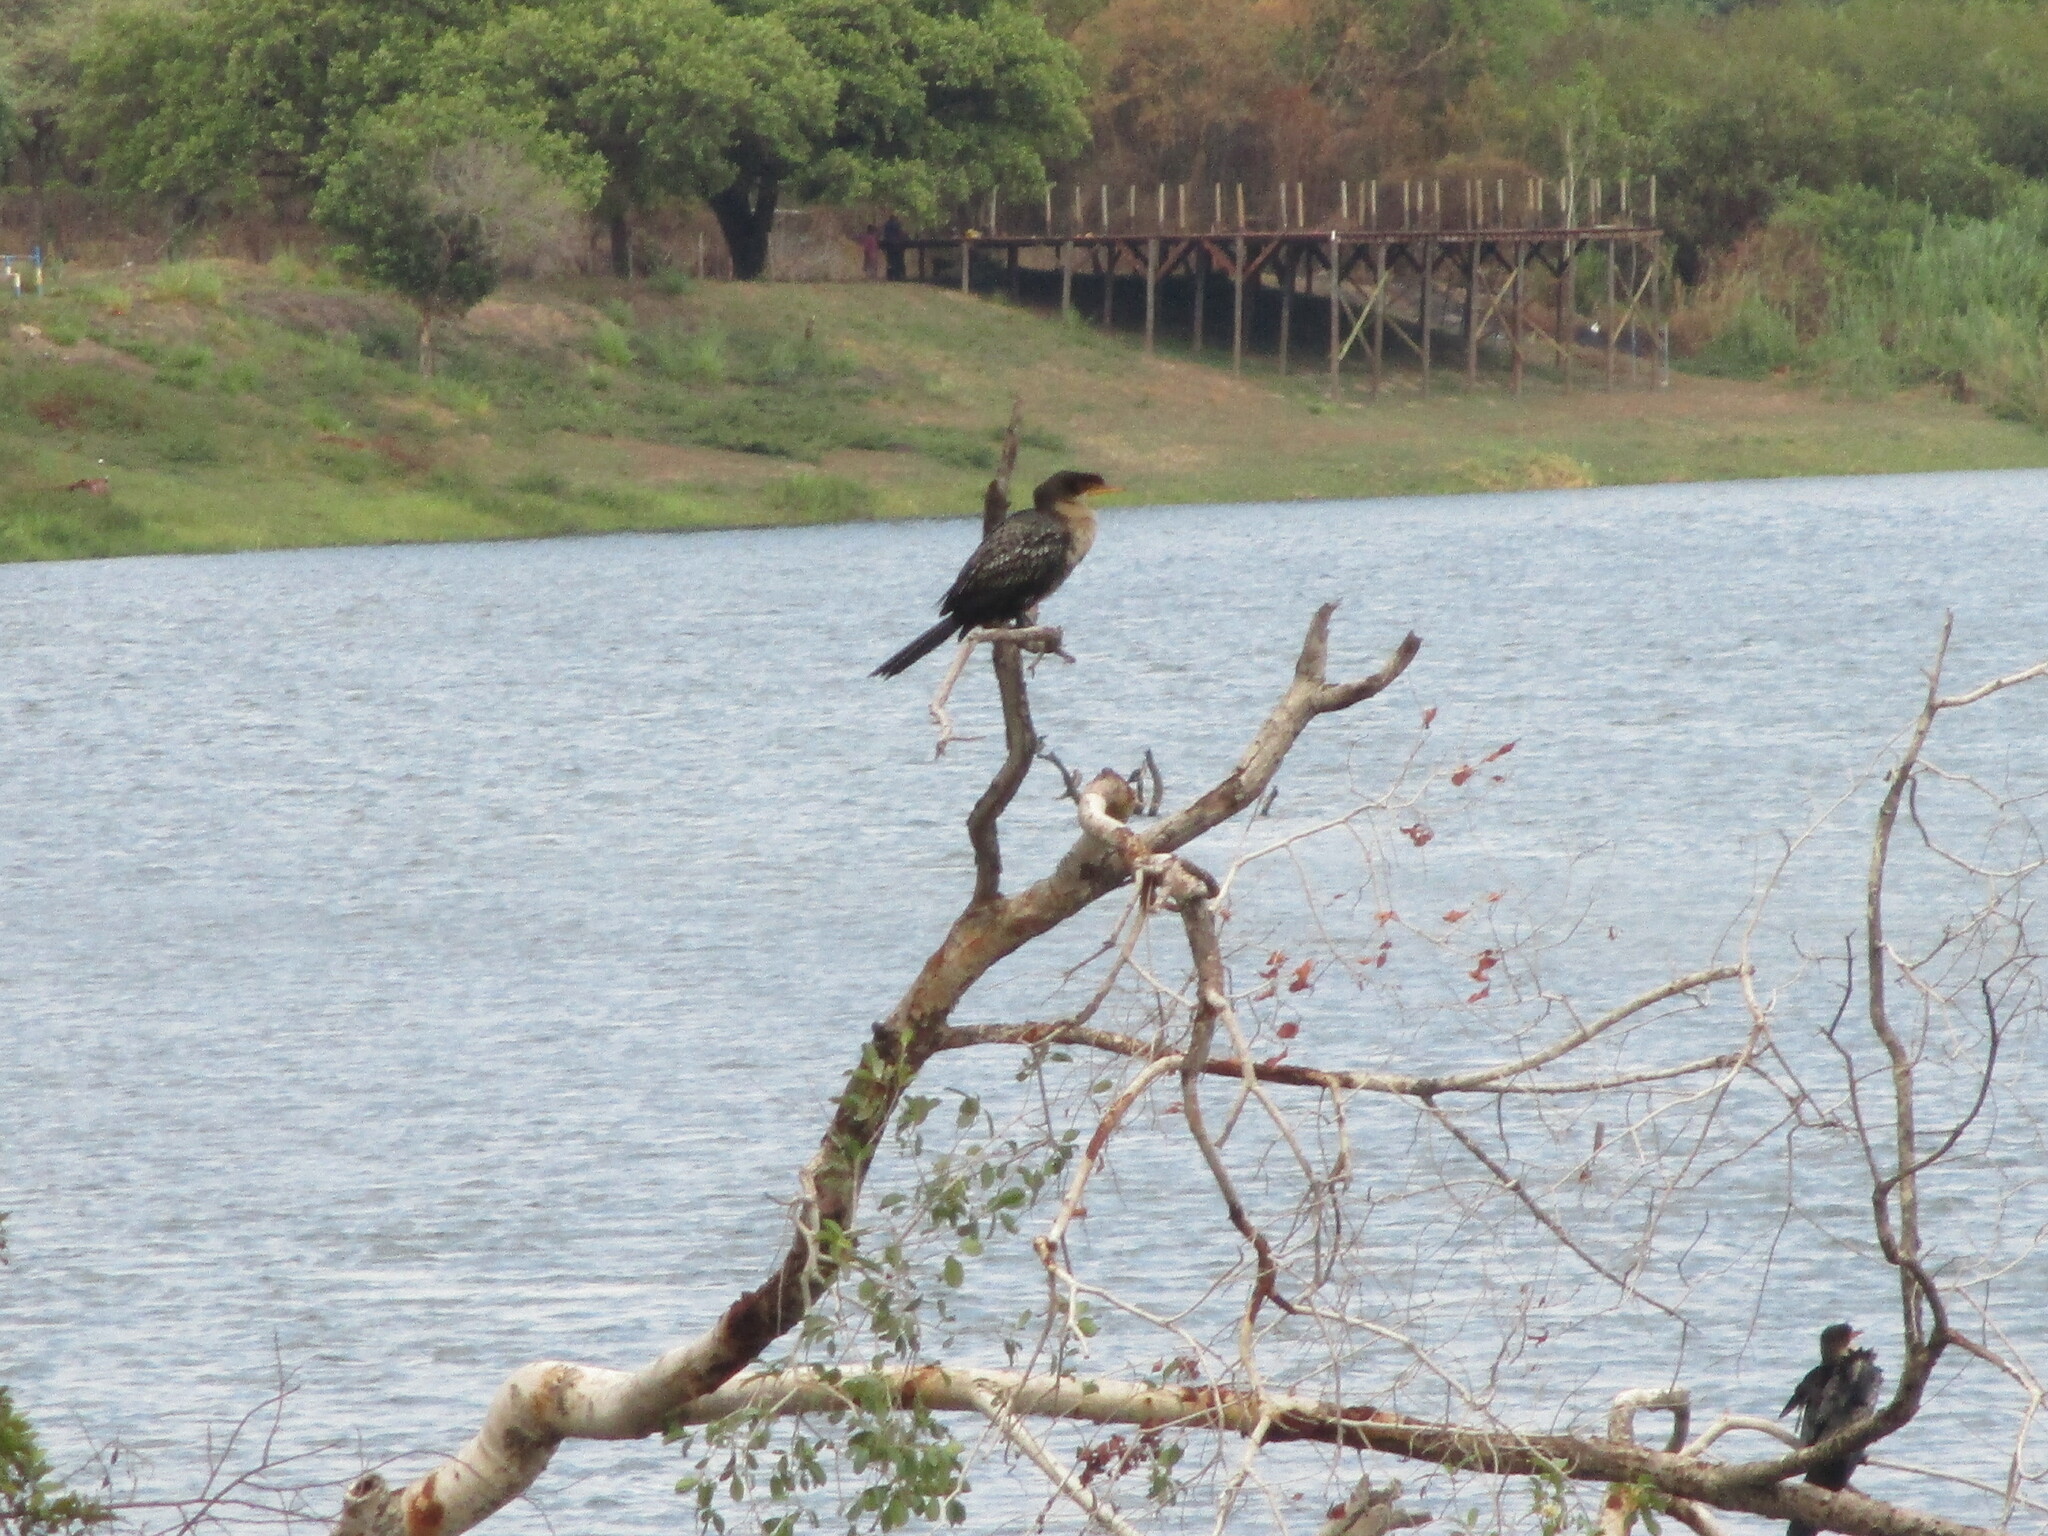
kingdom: Animalia
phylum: Chordata
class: Aves
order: Suliformes
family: Phalacrocoracidae
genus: Microcarbo
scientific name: Microcarbo africanus
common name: Long-tailed cormorant
